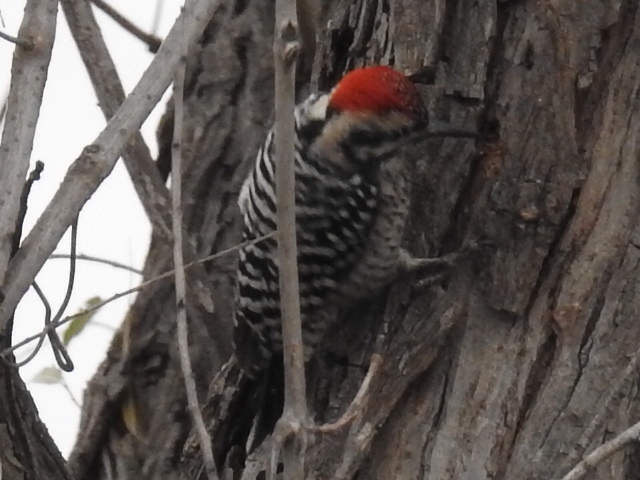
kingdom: Animalia
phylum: Chordata
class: Aves
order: Piciformes
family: Picidae
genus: Dryobates
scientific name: Dryobates scalaris
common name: Ladder-backed woodpecker
